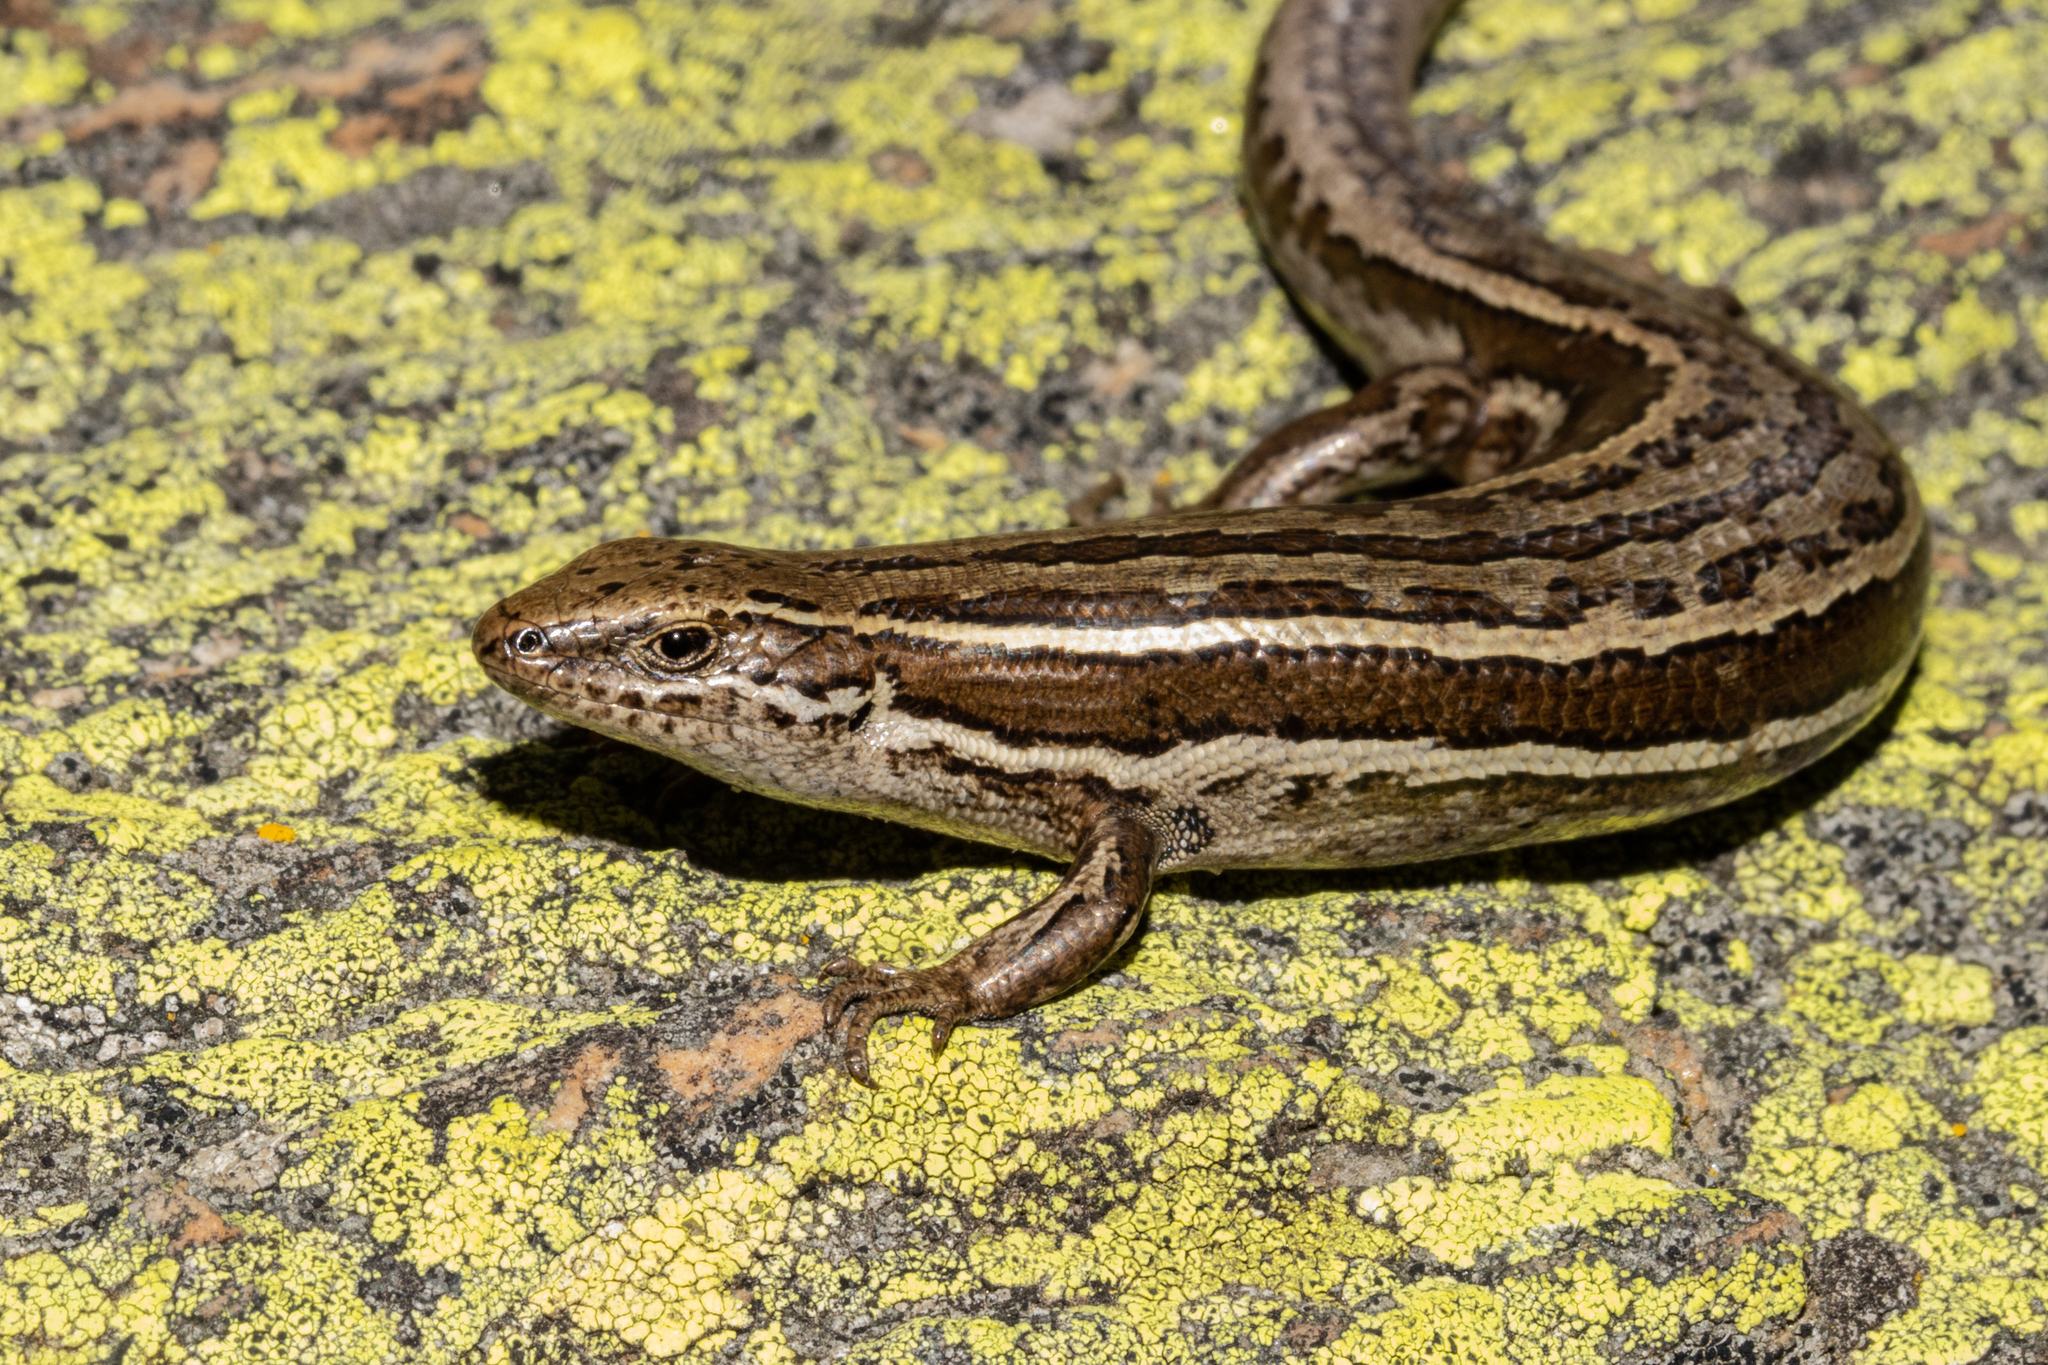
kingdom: Animalia
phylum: Chordata
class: Squamata
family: Scincidae
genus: Oligosoma
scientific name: Oligosoma maccanni
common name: Mccann’s skink
